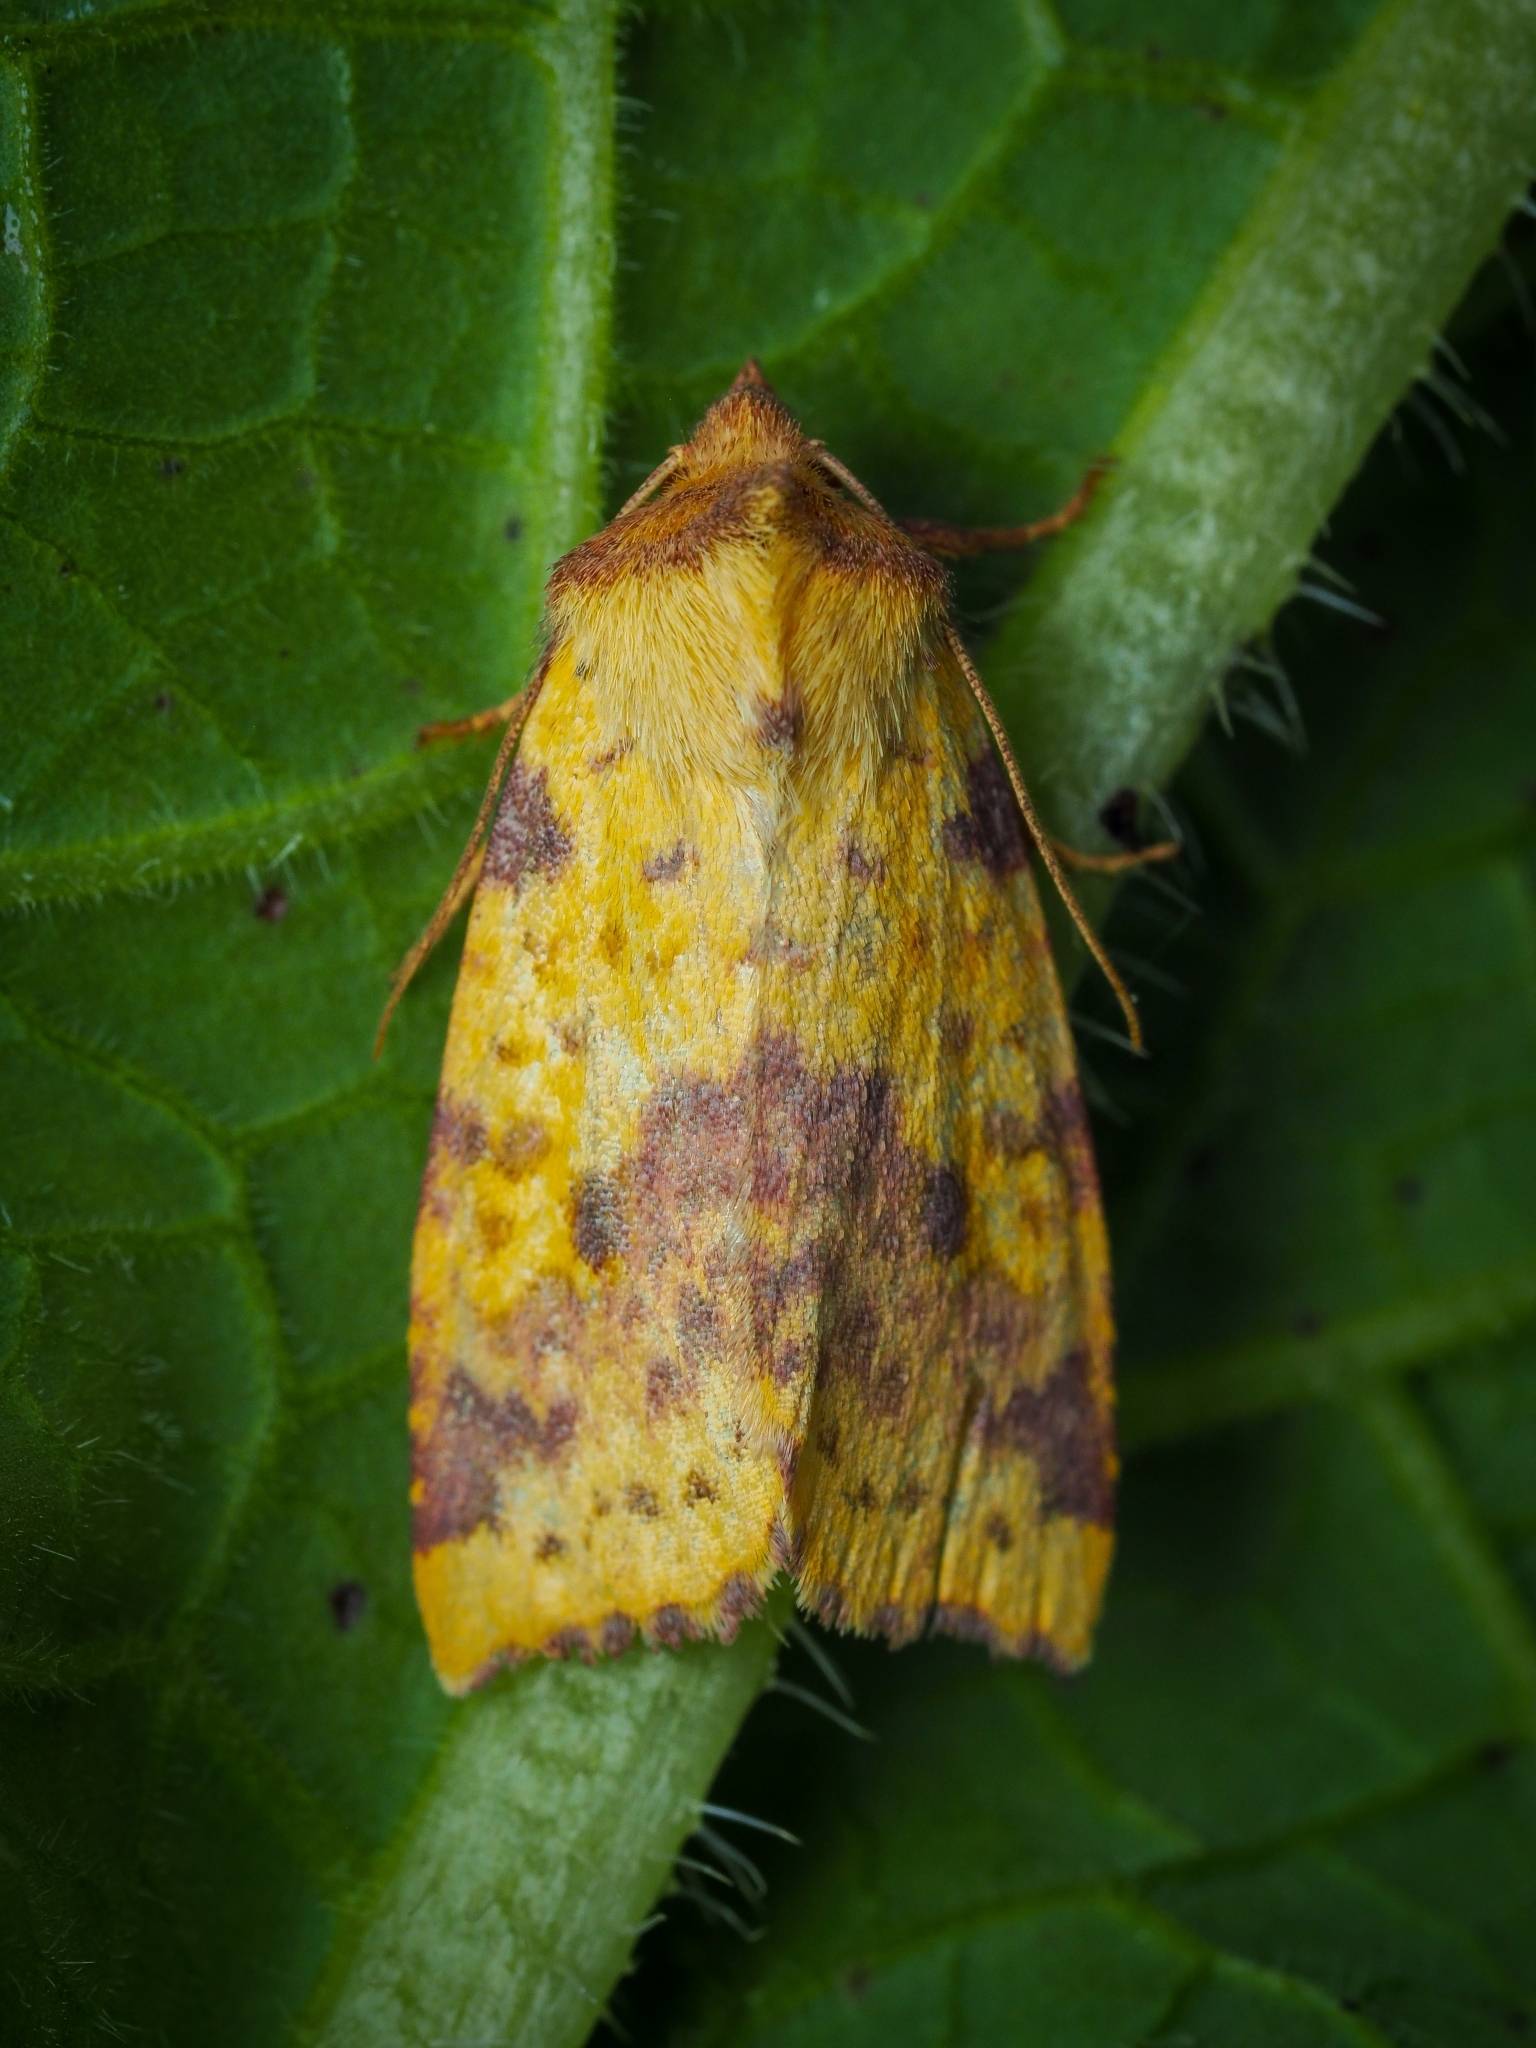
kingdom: Animalia
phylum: Arthropoda
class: Insecta
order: Lepidoptera
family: Noctuidae
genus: Xanthia
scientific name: Xanthia togata
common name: Pink-barred sallow
